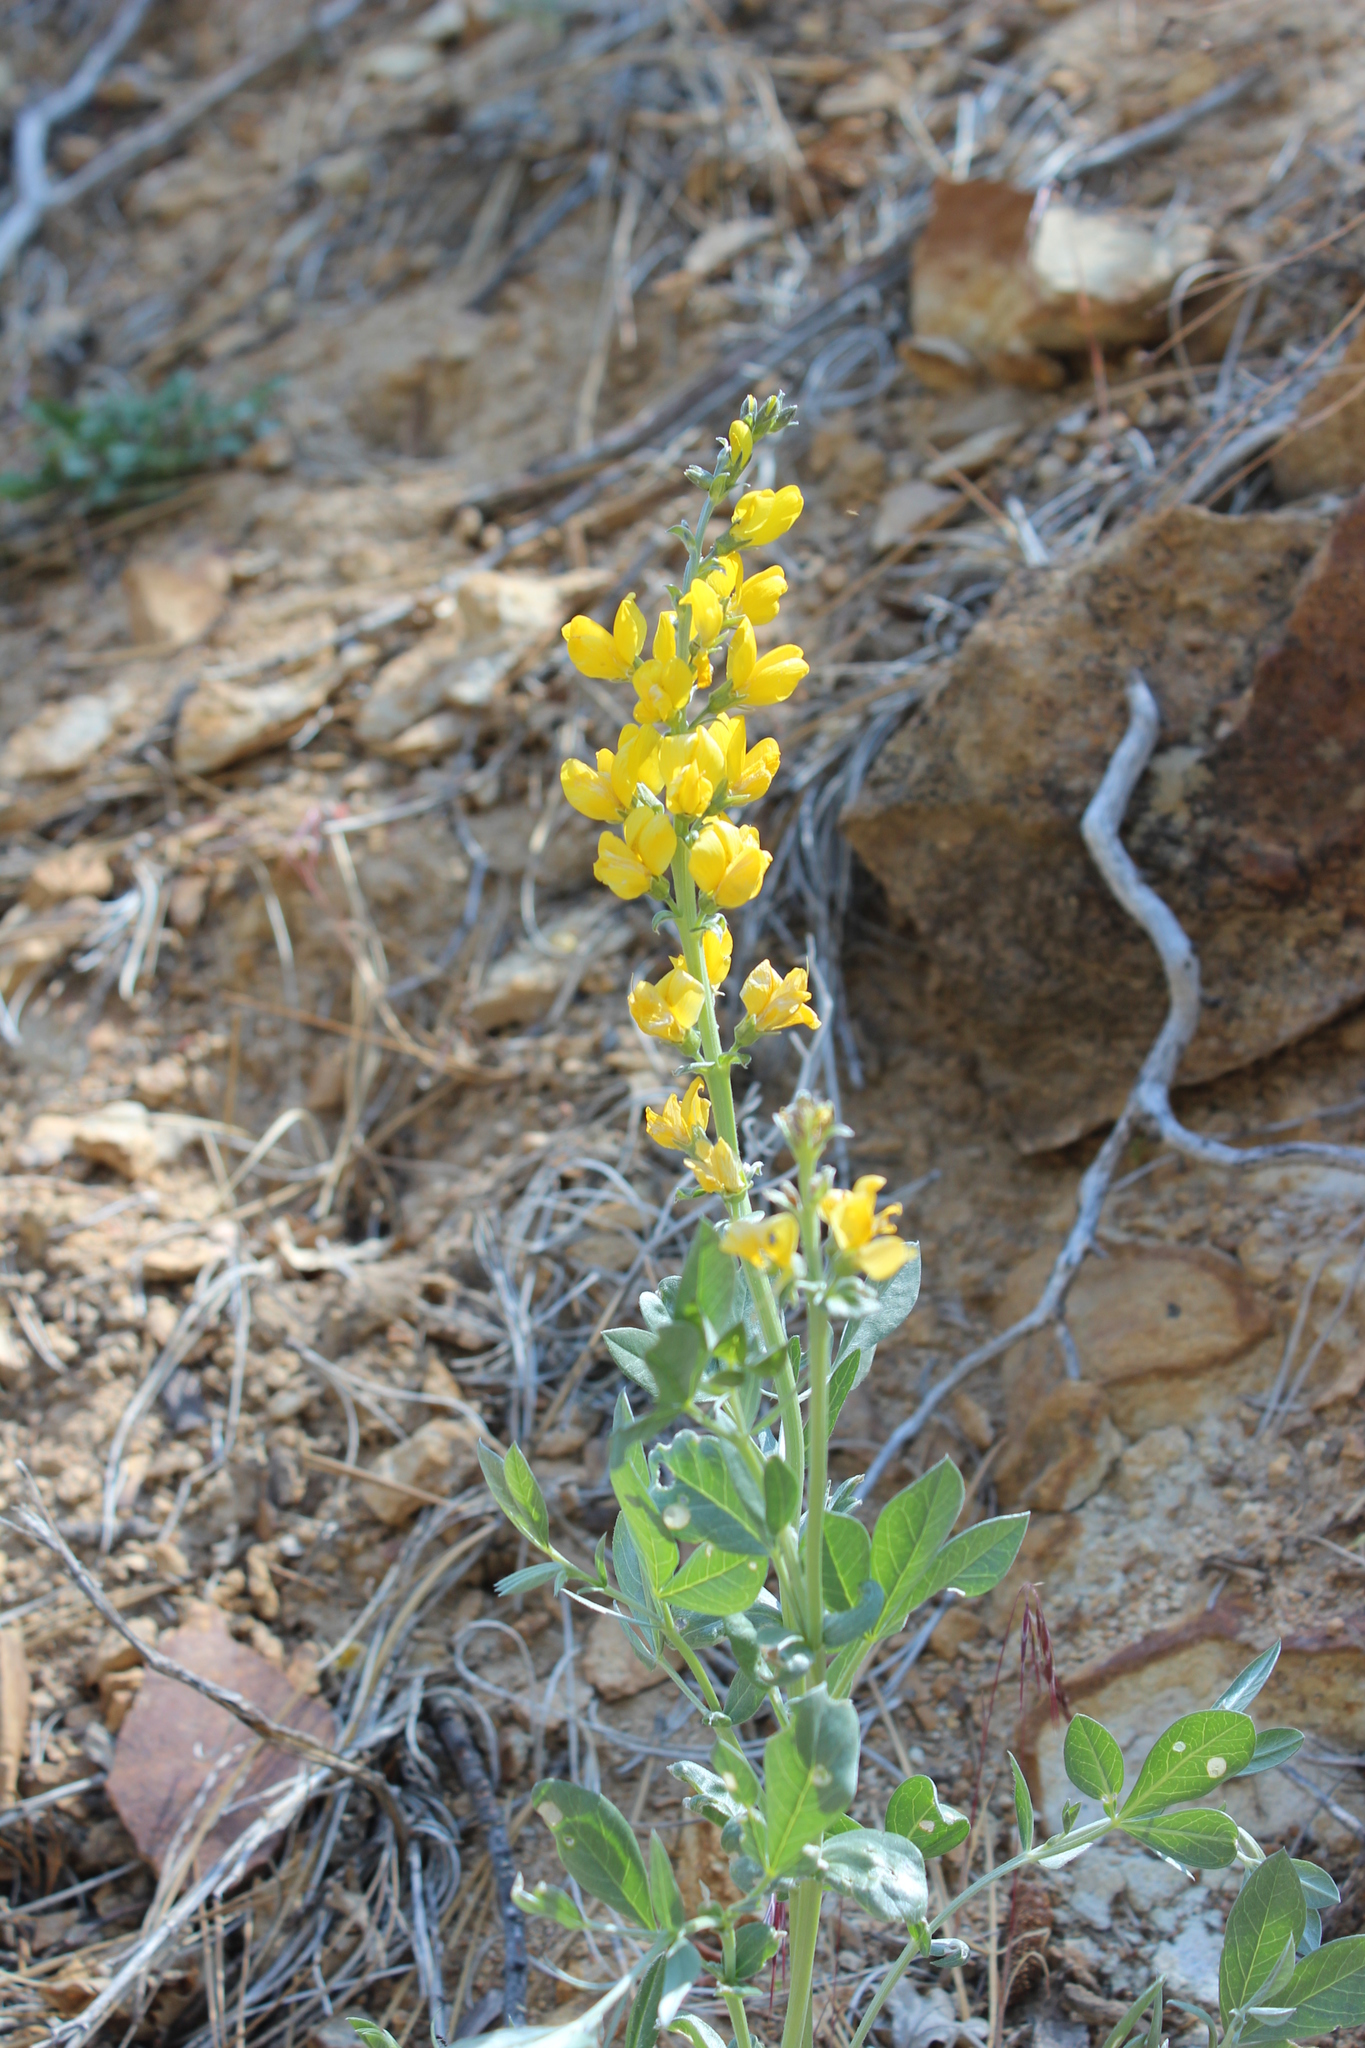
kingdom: Plantae
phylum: Tracheophyta
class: Magnoliopsida
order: Fabales
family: Fabaceae
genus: Thermopsis
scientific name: Thermopsis californica
